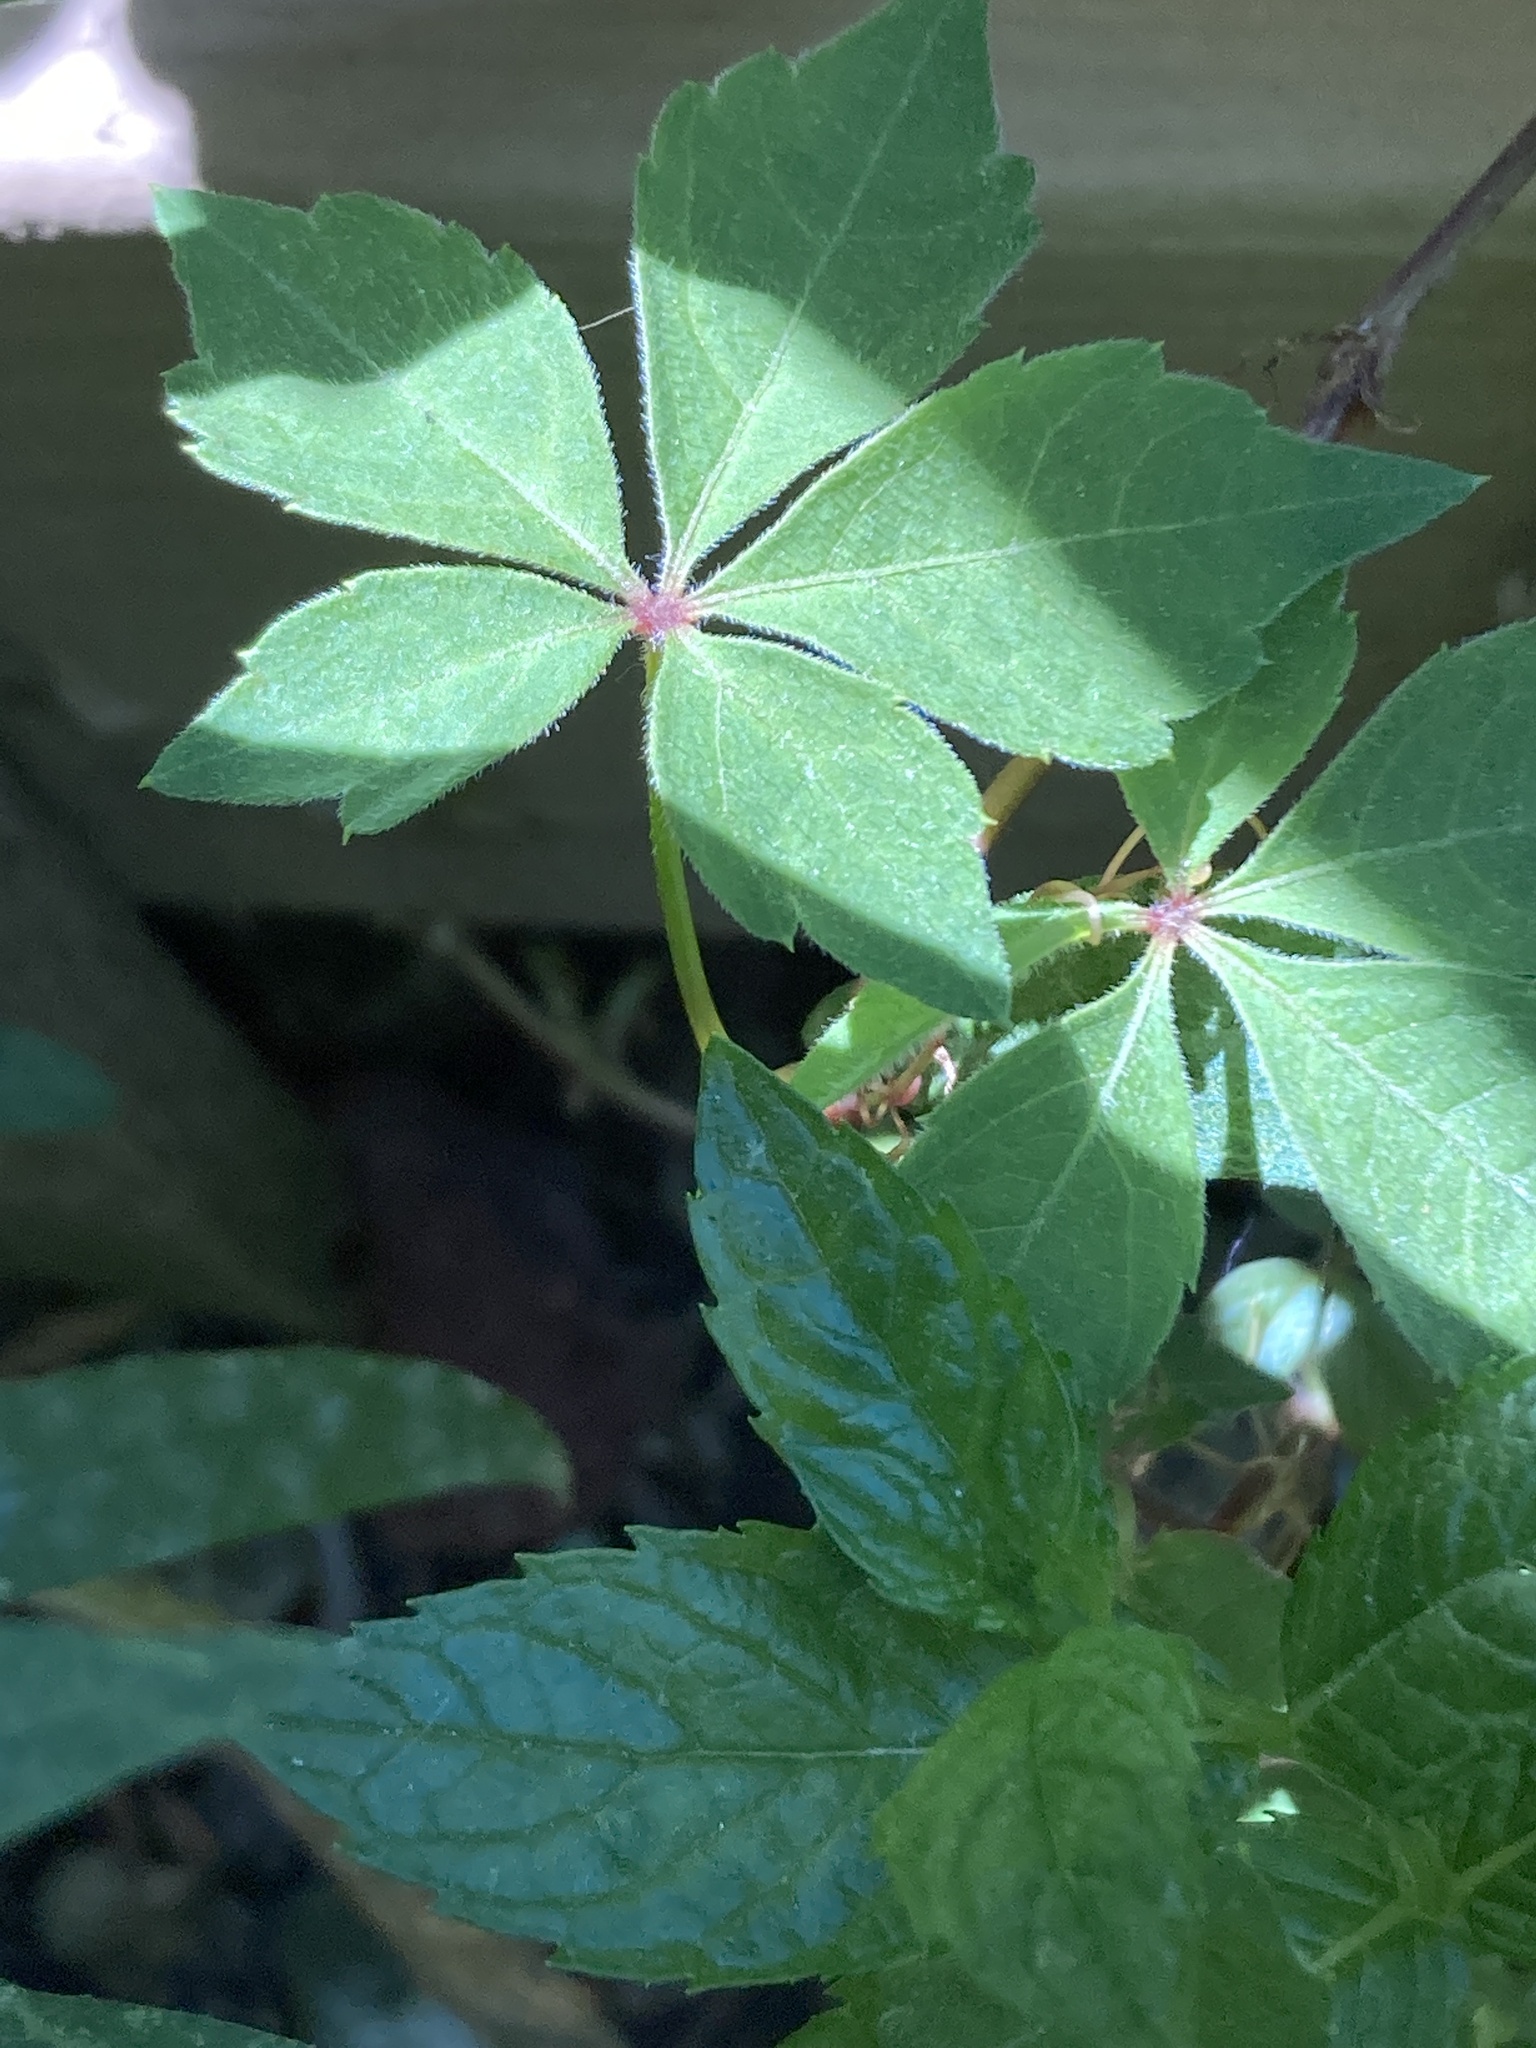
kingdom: Plantae
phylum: Tracheophyta
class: Magnoliopsida
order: Vitales
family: Vitaceae
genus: Parthenocissus
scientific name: Parthenocissus quinquefolia
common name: Virginia-creeper
